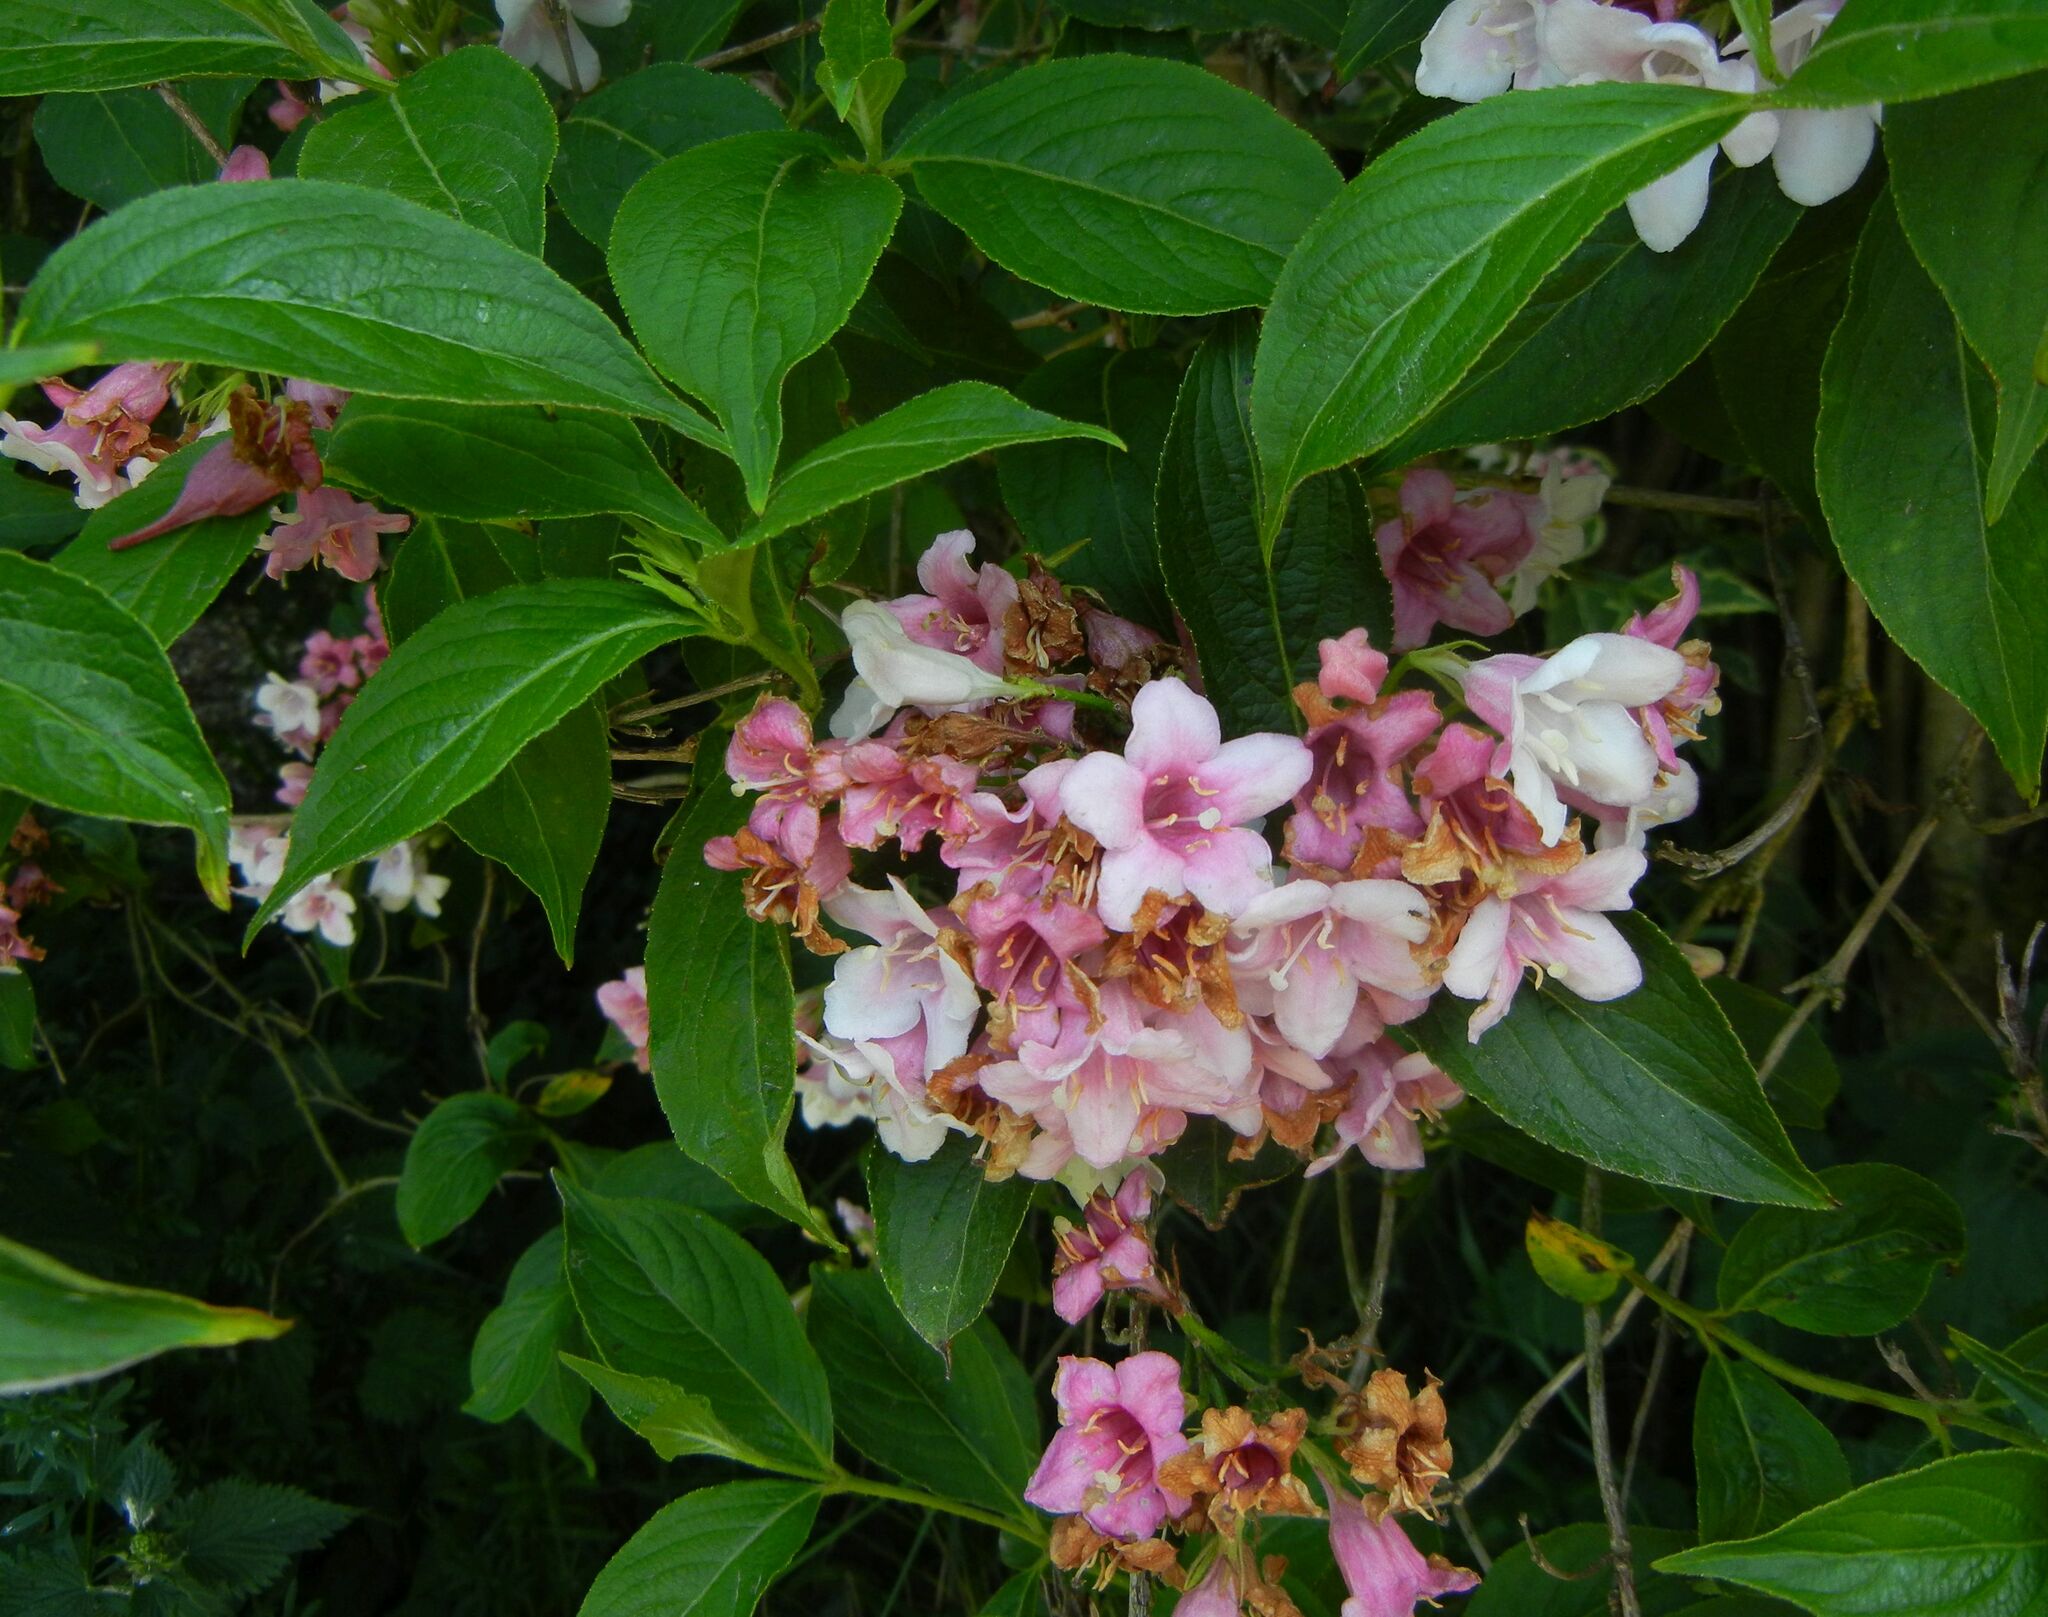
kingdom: Plantae
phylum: Tracheophyta
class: Magnoliopsida
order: Dipsacales
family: Caprifoliaceae
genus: Weigela
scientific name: Weigela florida
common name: Weigelia
